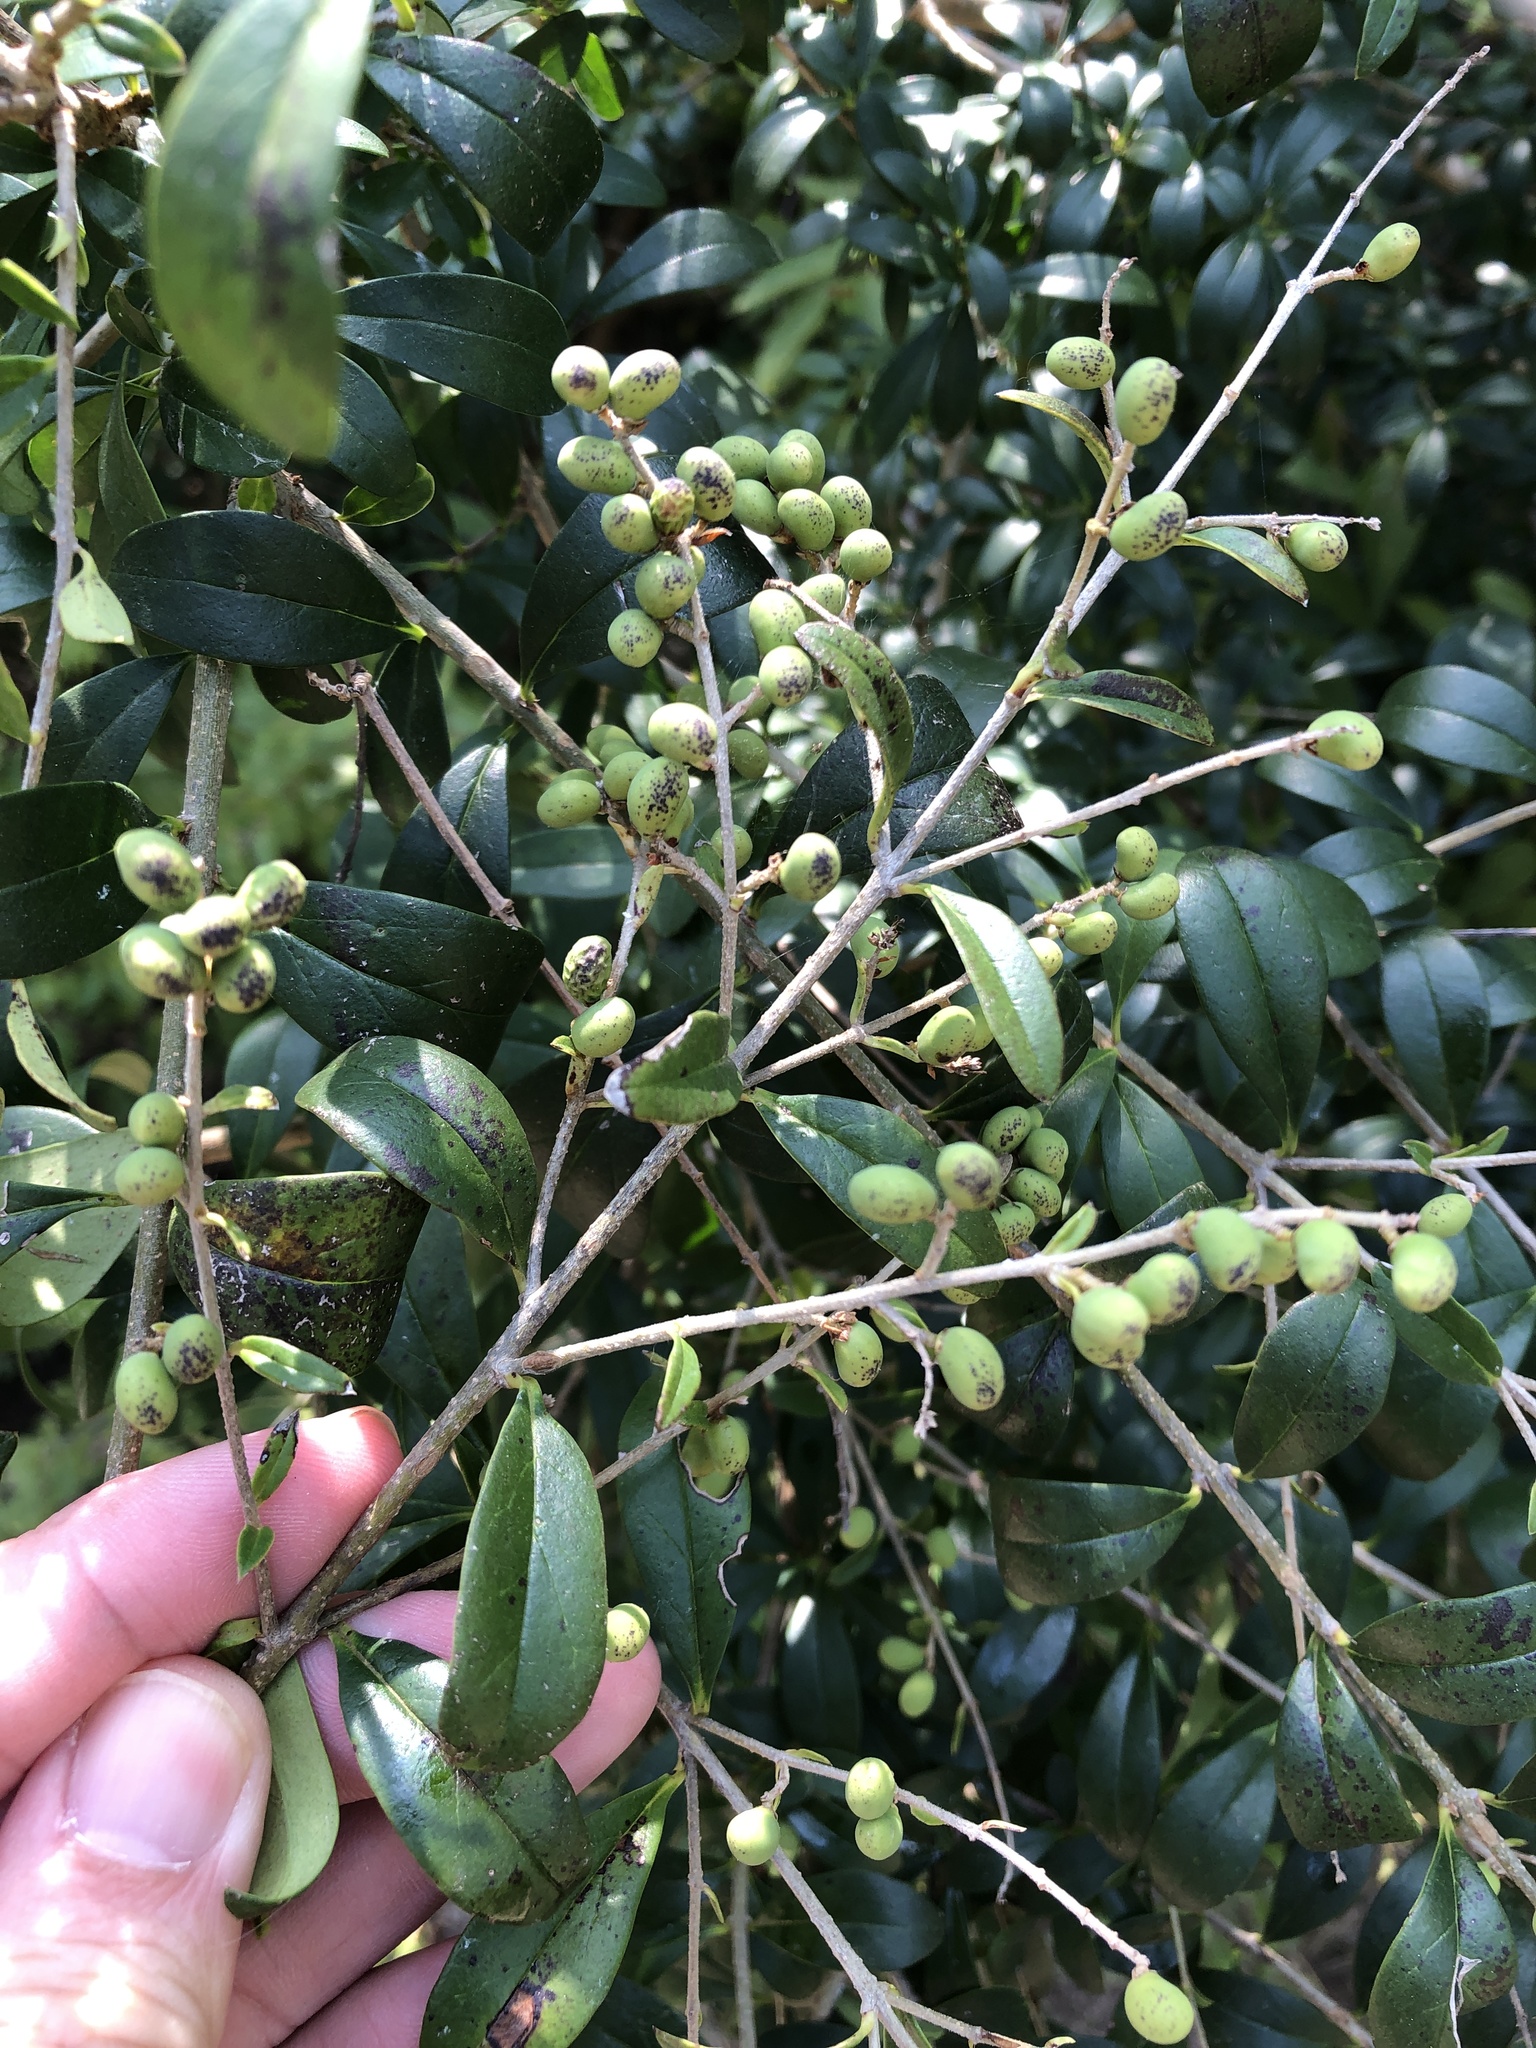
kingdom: Plantae
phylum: Tracheophyta
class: Magnoliopsida
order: Lamiales
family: Oleaceae
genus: Ligustrum
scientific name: Ligustrum quihoui
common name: Waxyleaf privet
